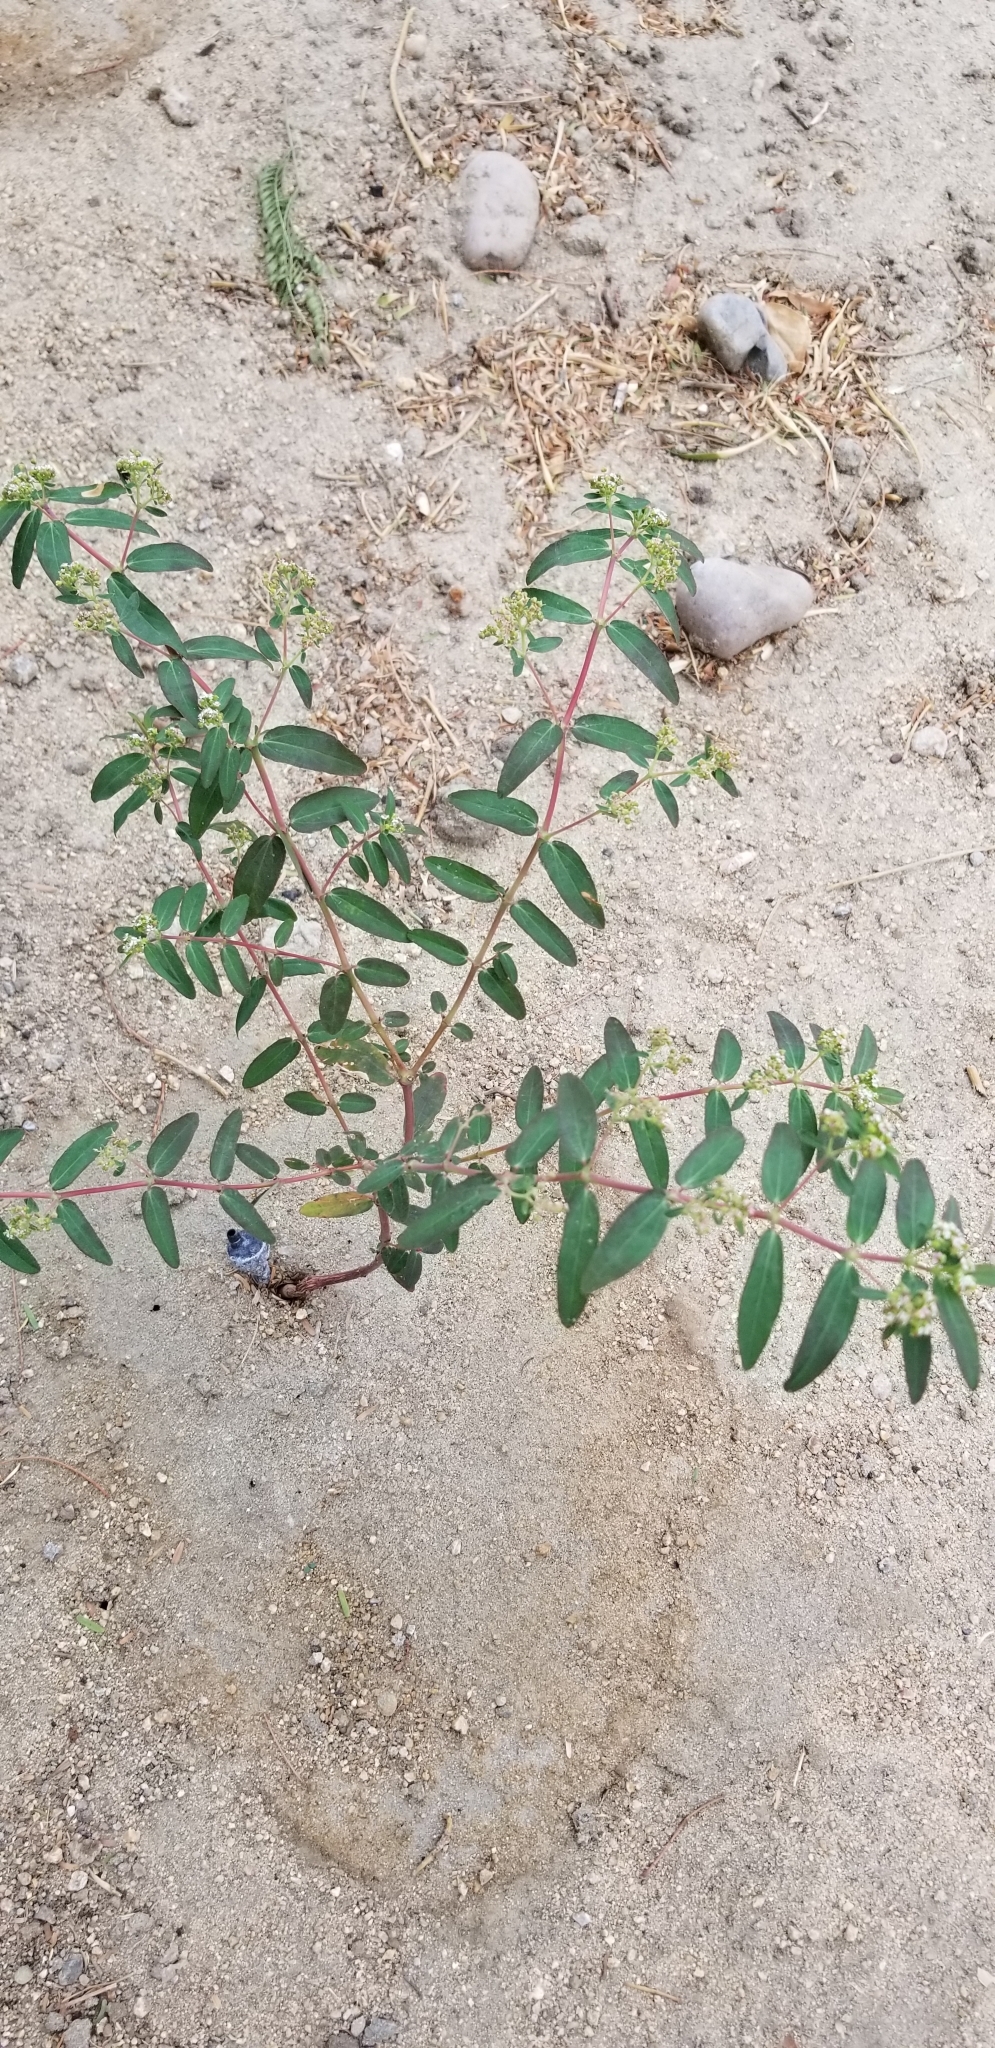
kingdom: Plantae
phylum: Tracheophyta
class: Magnoliopsida
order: Malpighiales
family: Euphorbiaceae
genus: Euphorbia
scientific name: Euphorbia hypericifolia
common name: Graceful sandmat
